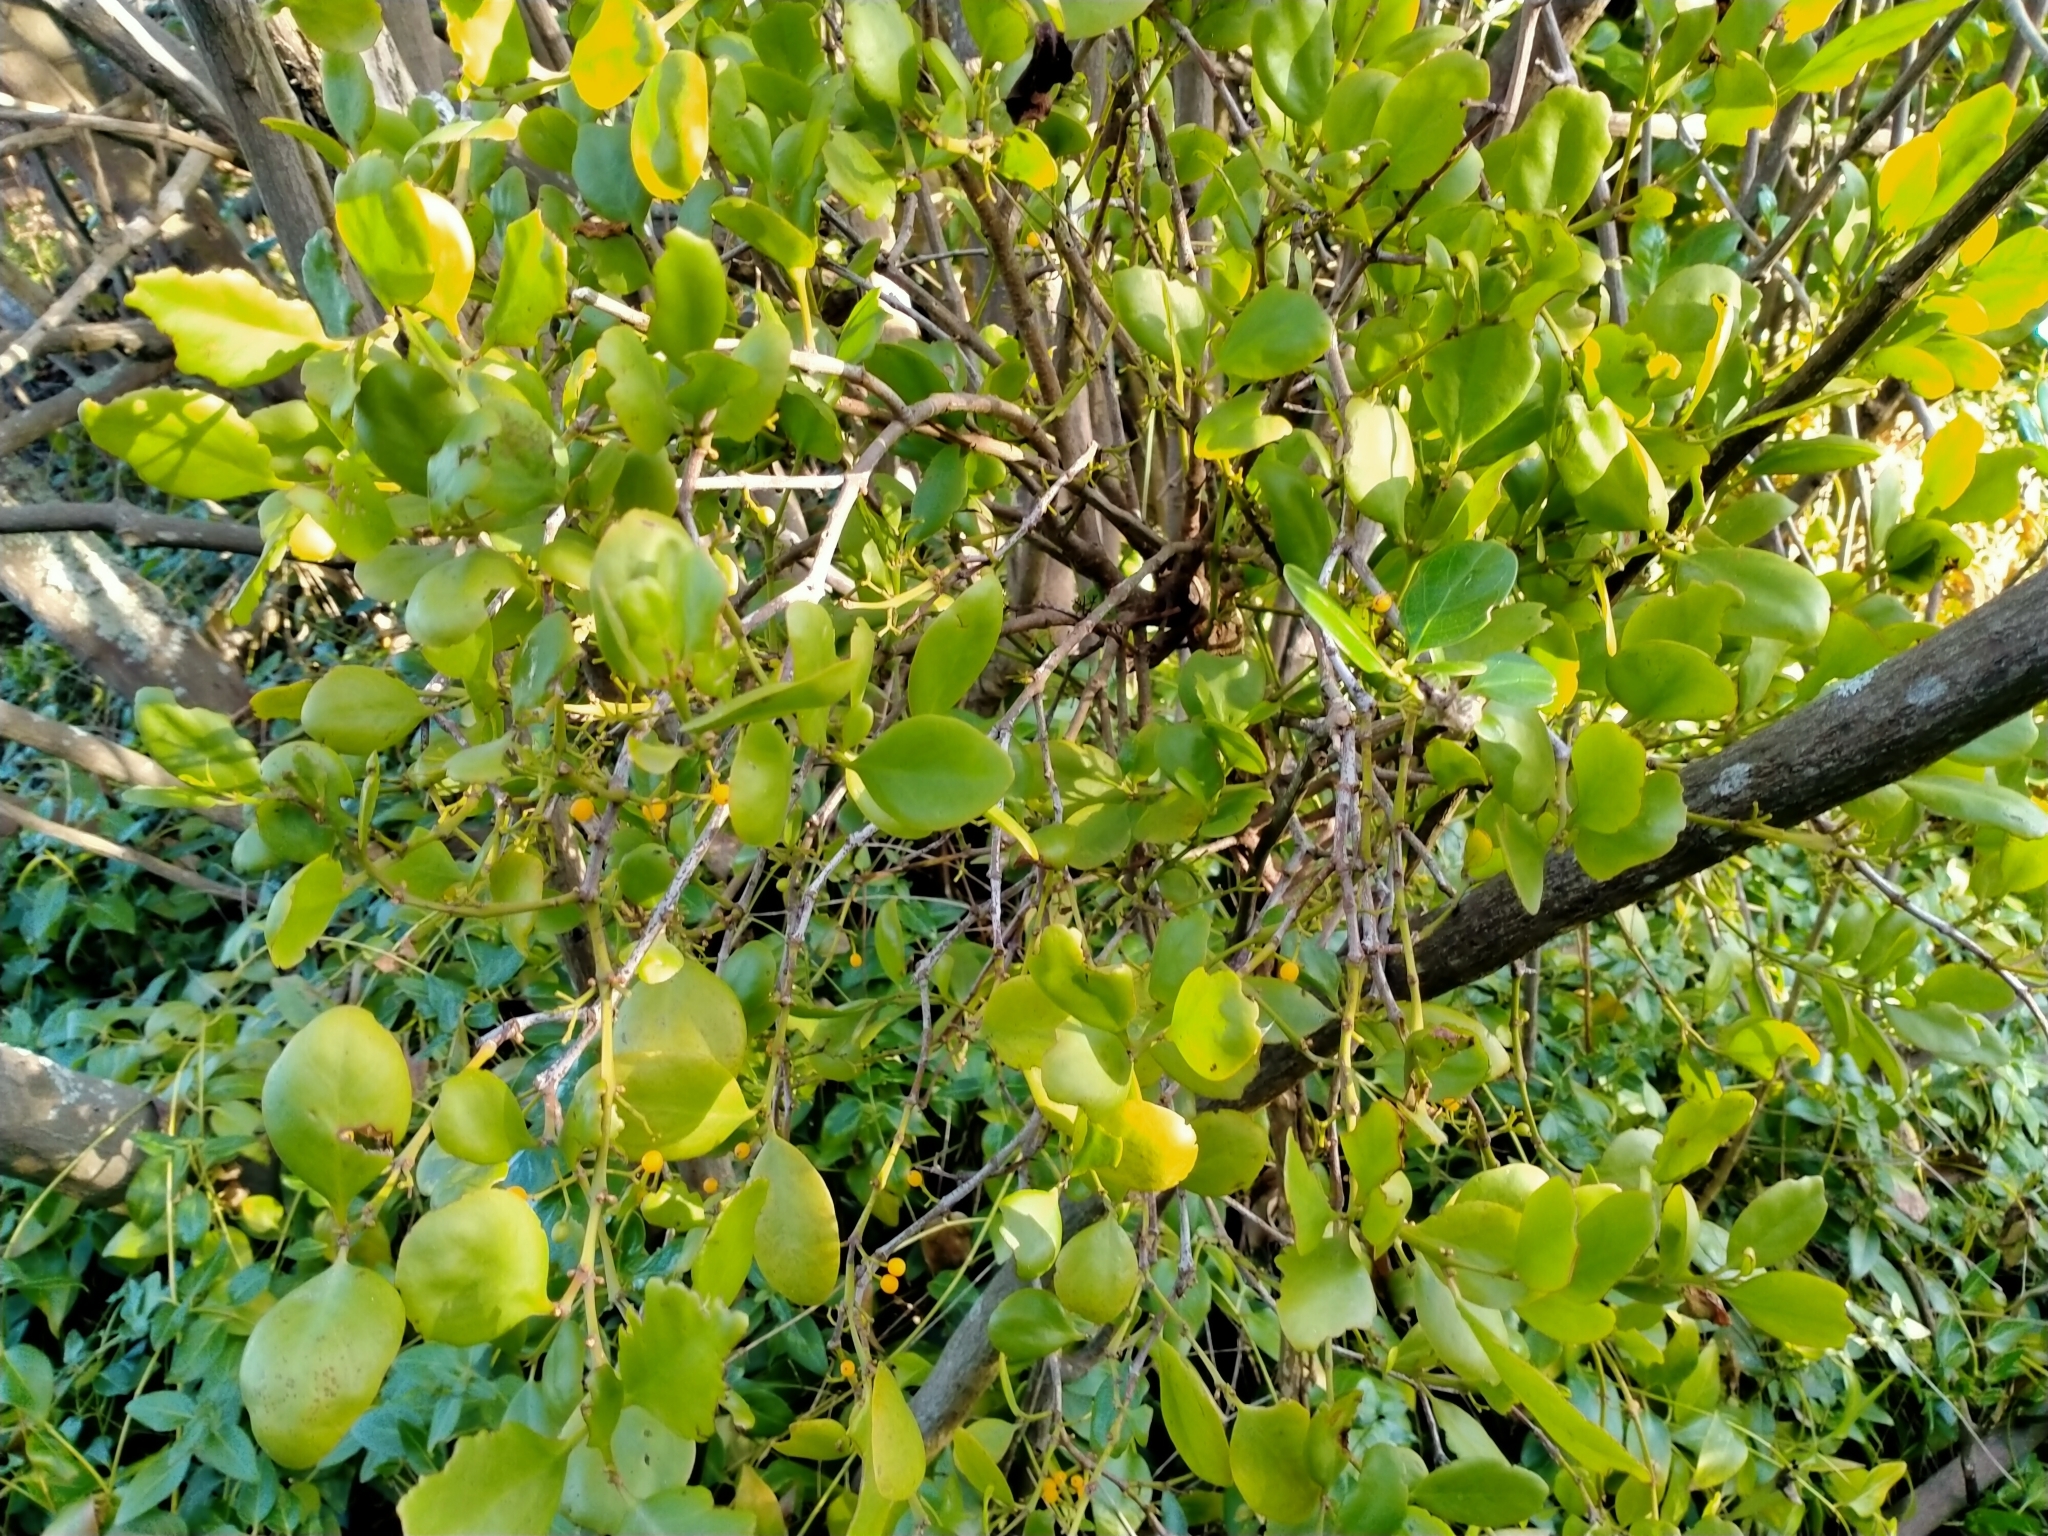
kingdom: Plantae
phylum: Tracheophyta
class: Magnoliopsida
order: Santalales
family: Loranthaceae
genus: Ileostylus
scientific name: Ileostylus micranthus
